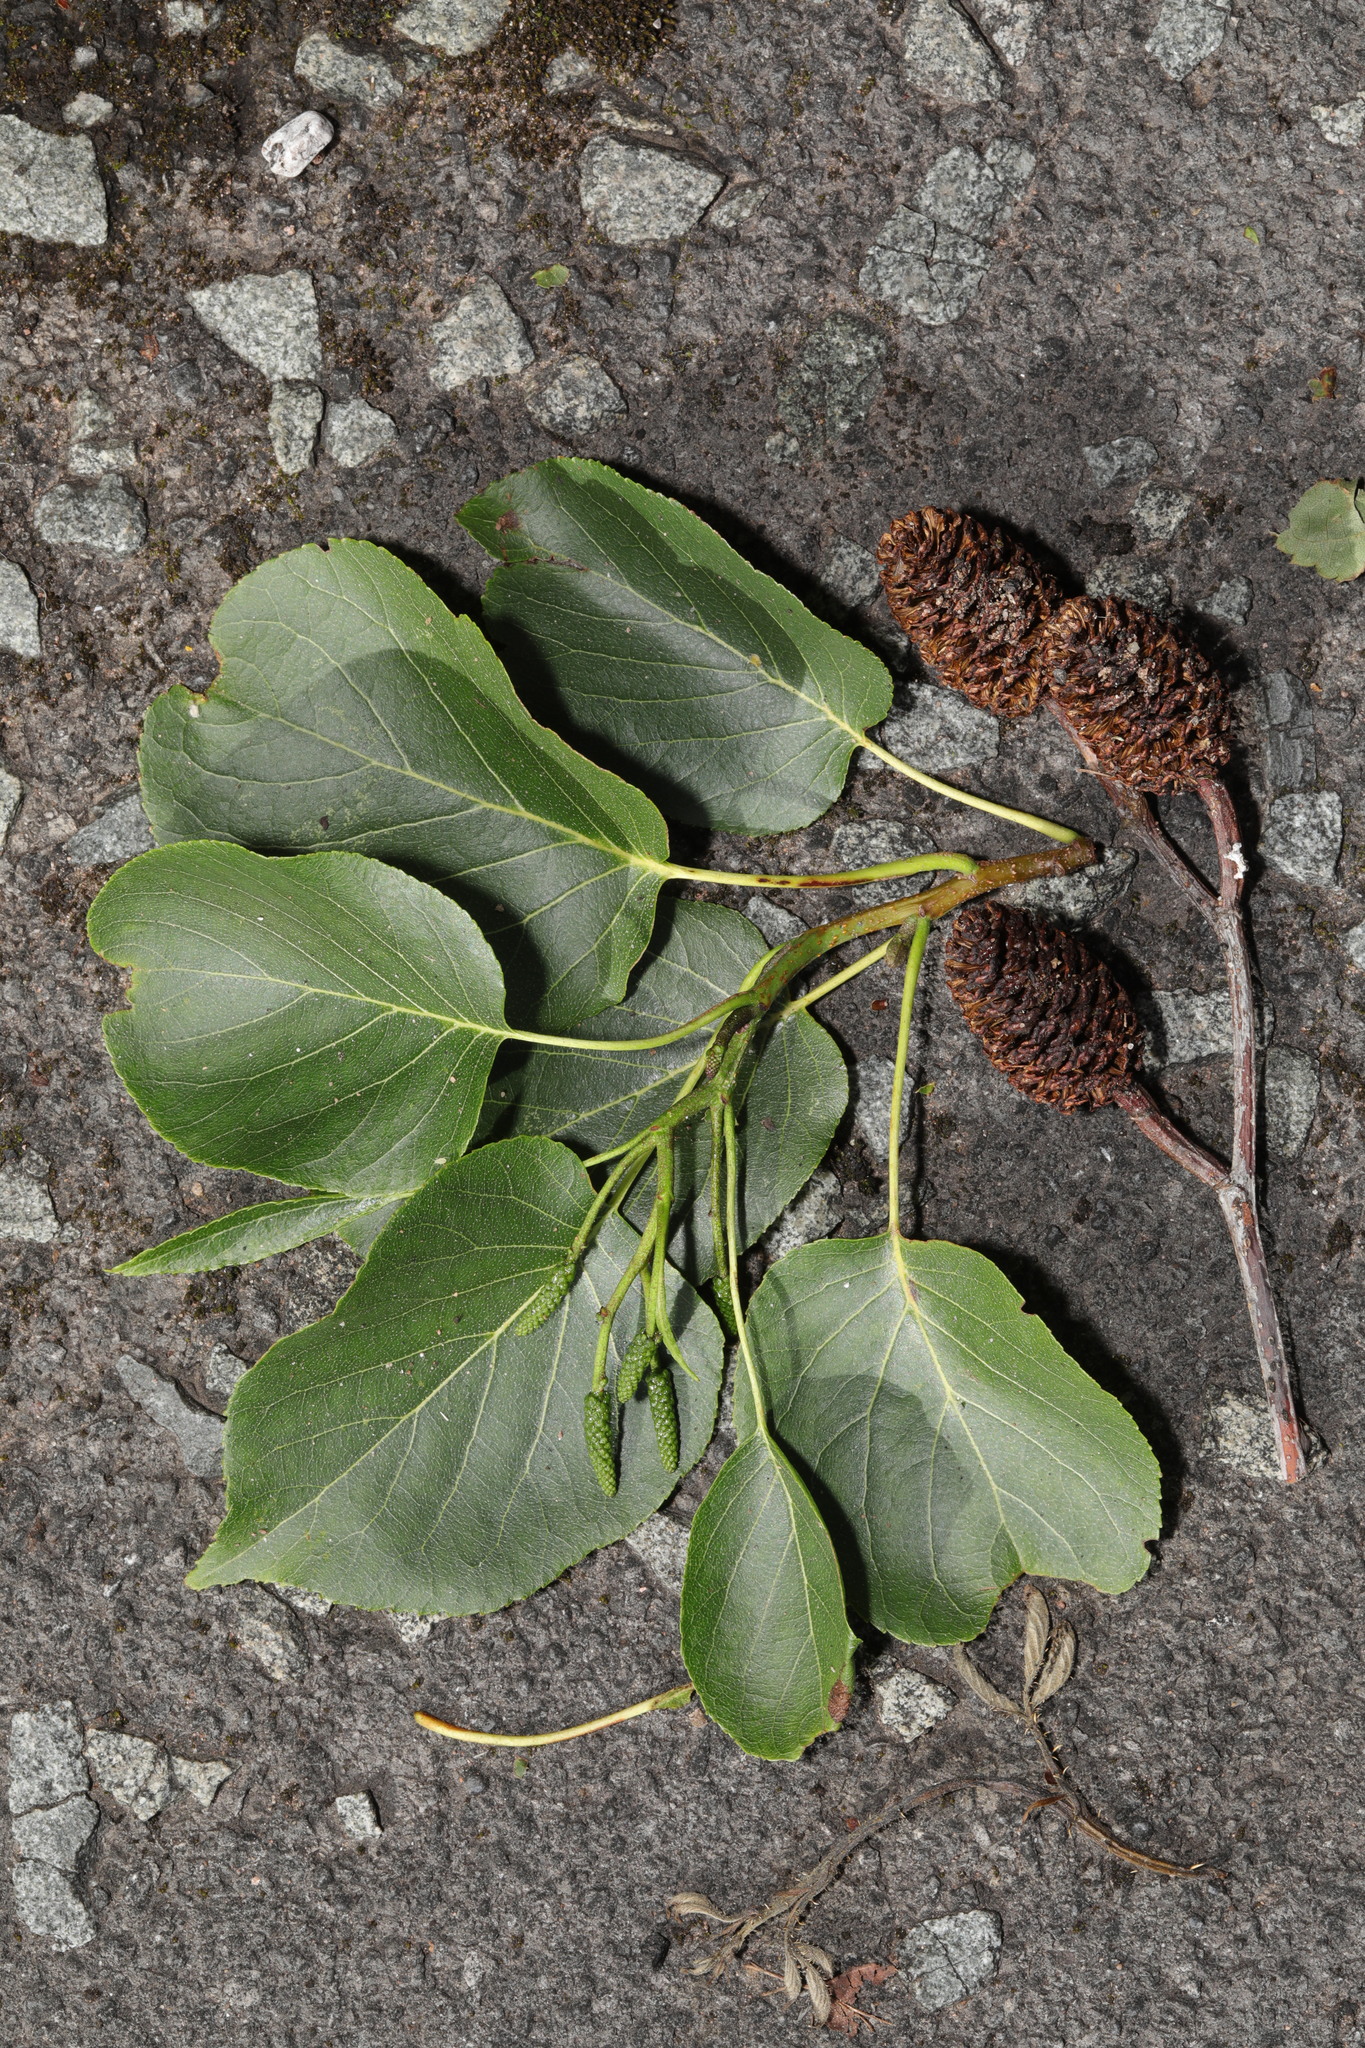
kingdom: Plantae
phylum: Tracheophyta
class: Magnoliopsida
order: Fagales
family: Betulaceae
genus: Alnus
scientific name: Alnus cordata
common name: Italian alder
